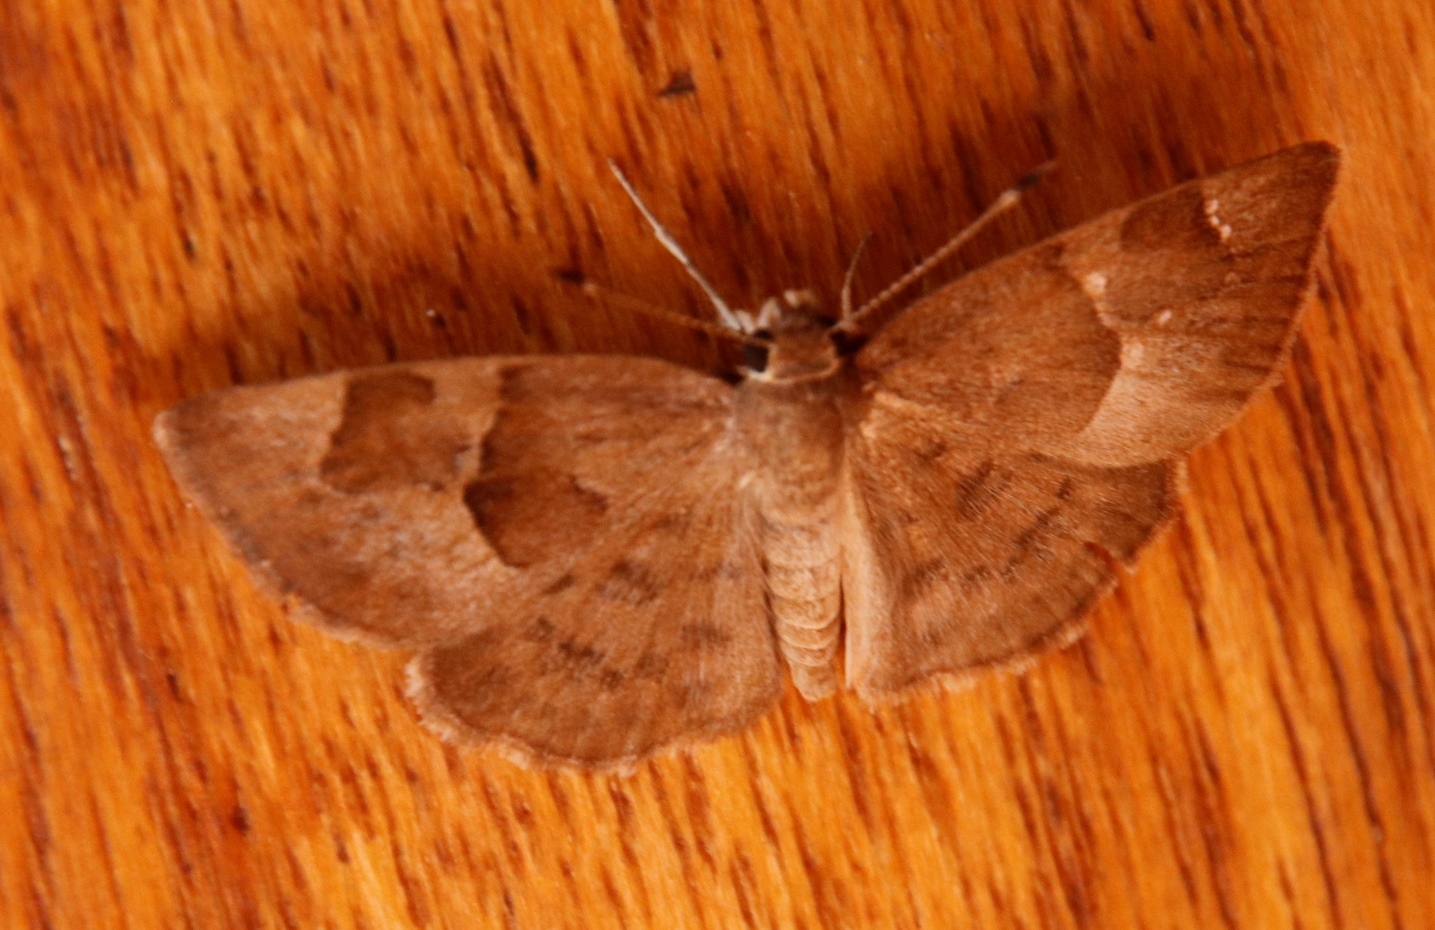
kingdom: Animalia
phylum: Arthropoda
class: Insecta
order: Lepidoptera
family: Hesperiidae
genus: Sarangesa
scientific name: Sarangesa phidyle
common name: Small elfin
